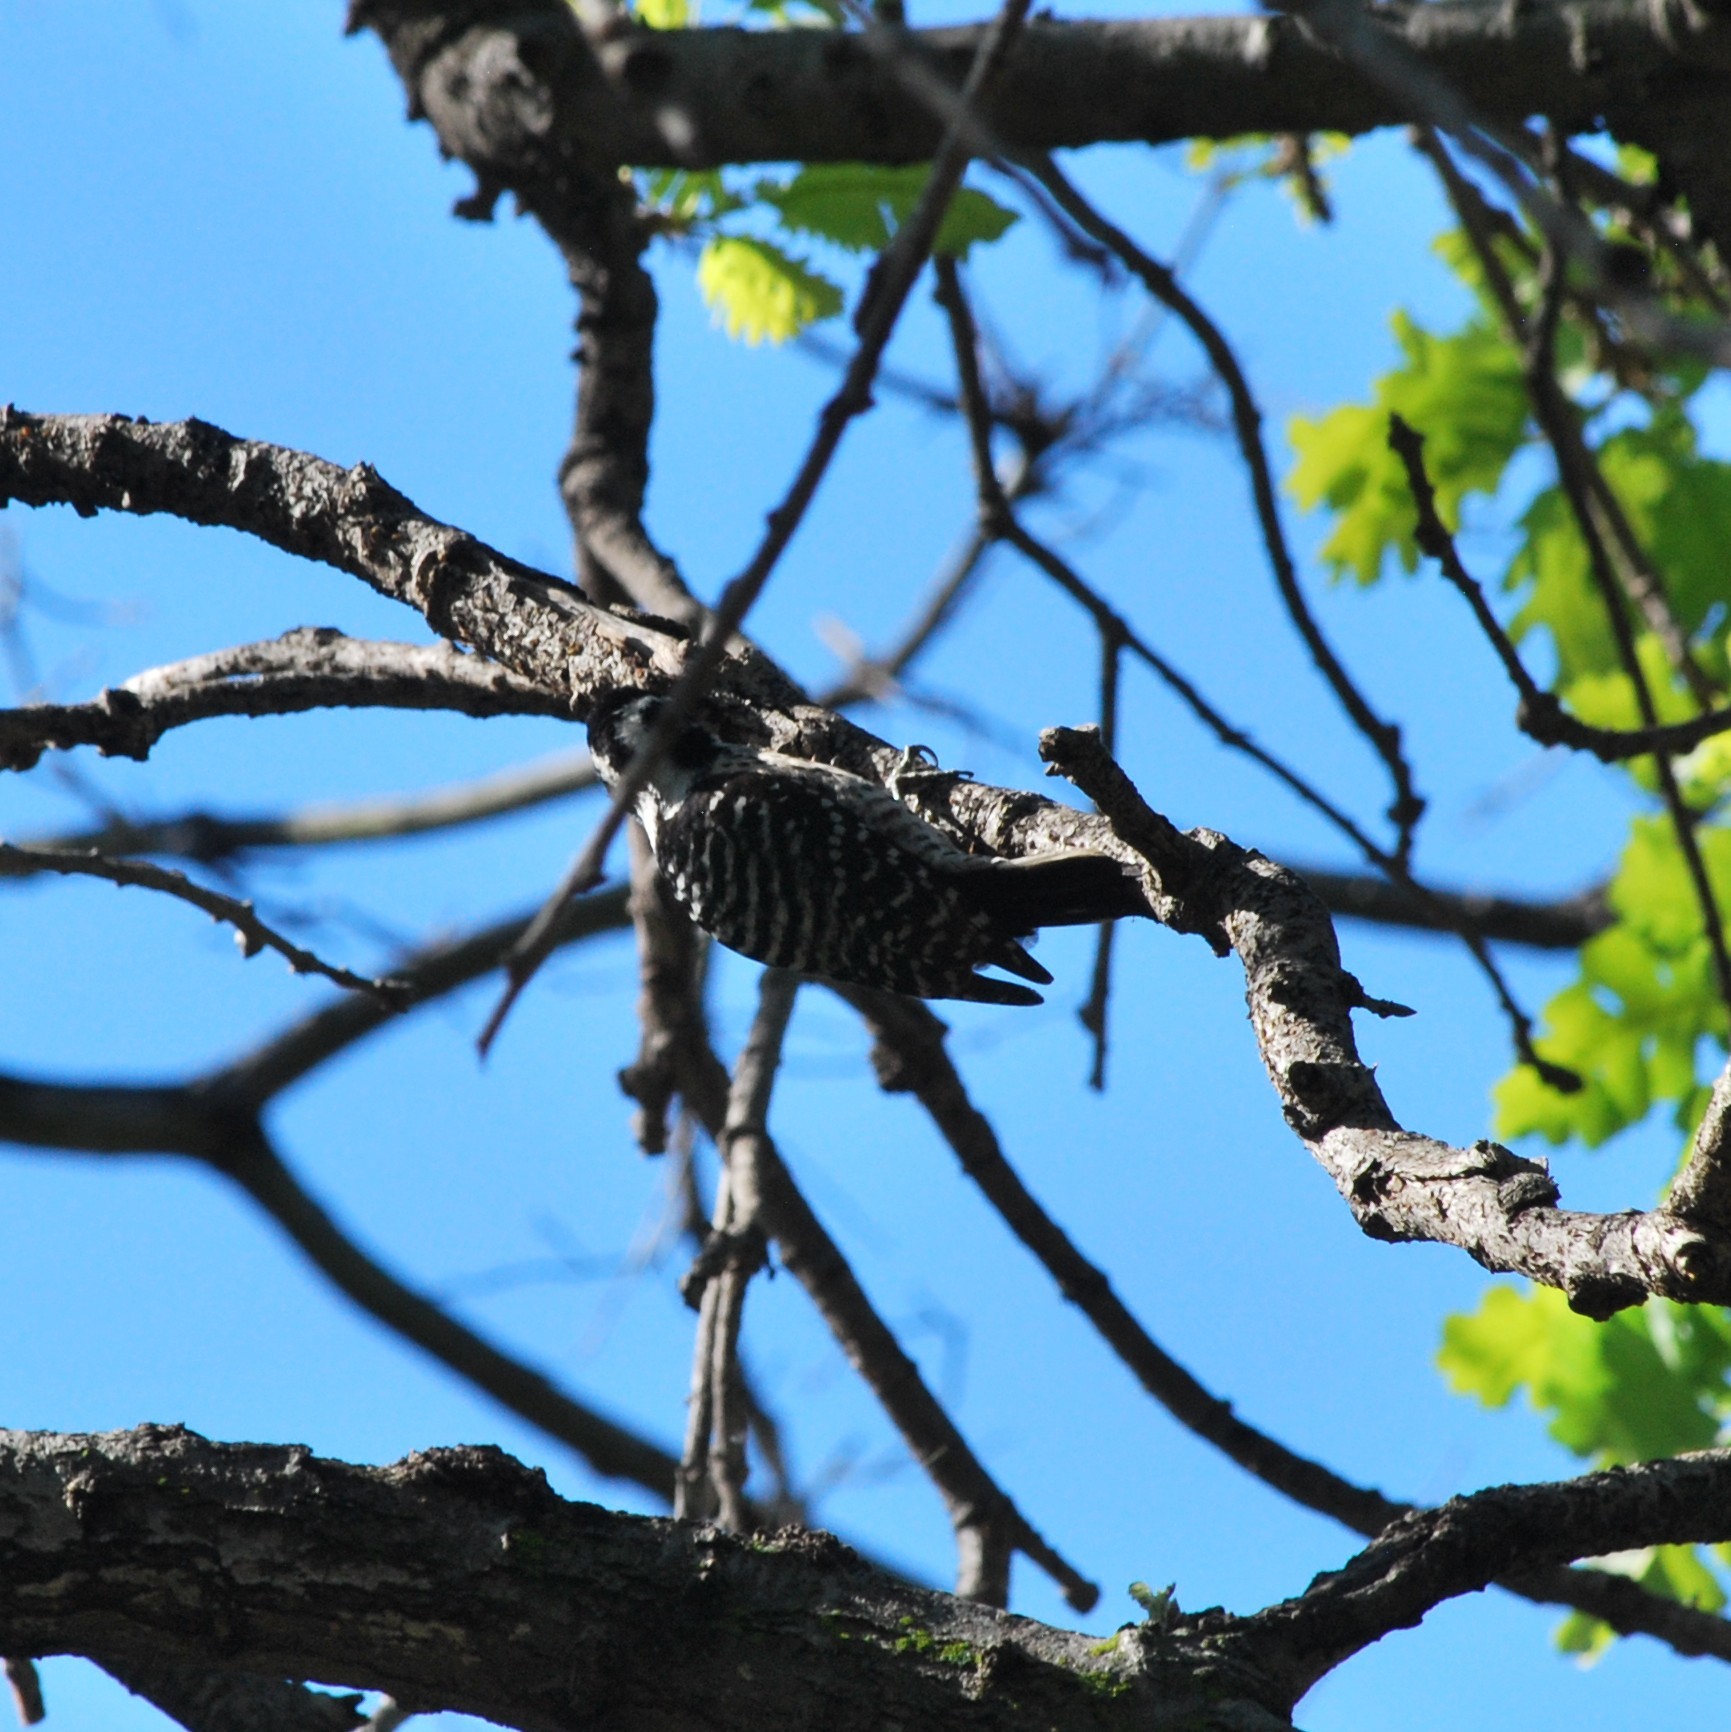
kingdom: Animalia
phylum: Chordata
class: Aves
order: Piciformes
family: Picidae
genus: Dryobates
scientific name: Dryobates nuttallii
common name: Nuttall's woodpecker
